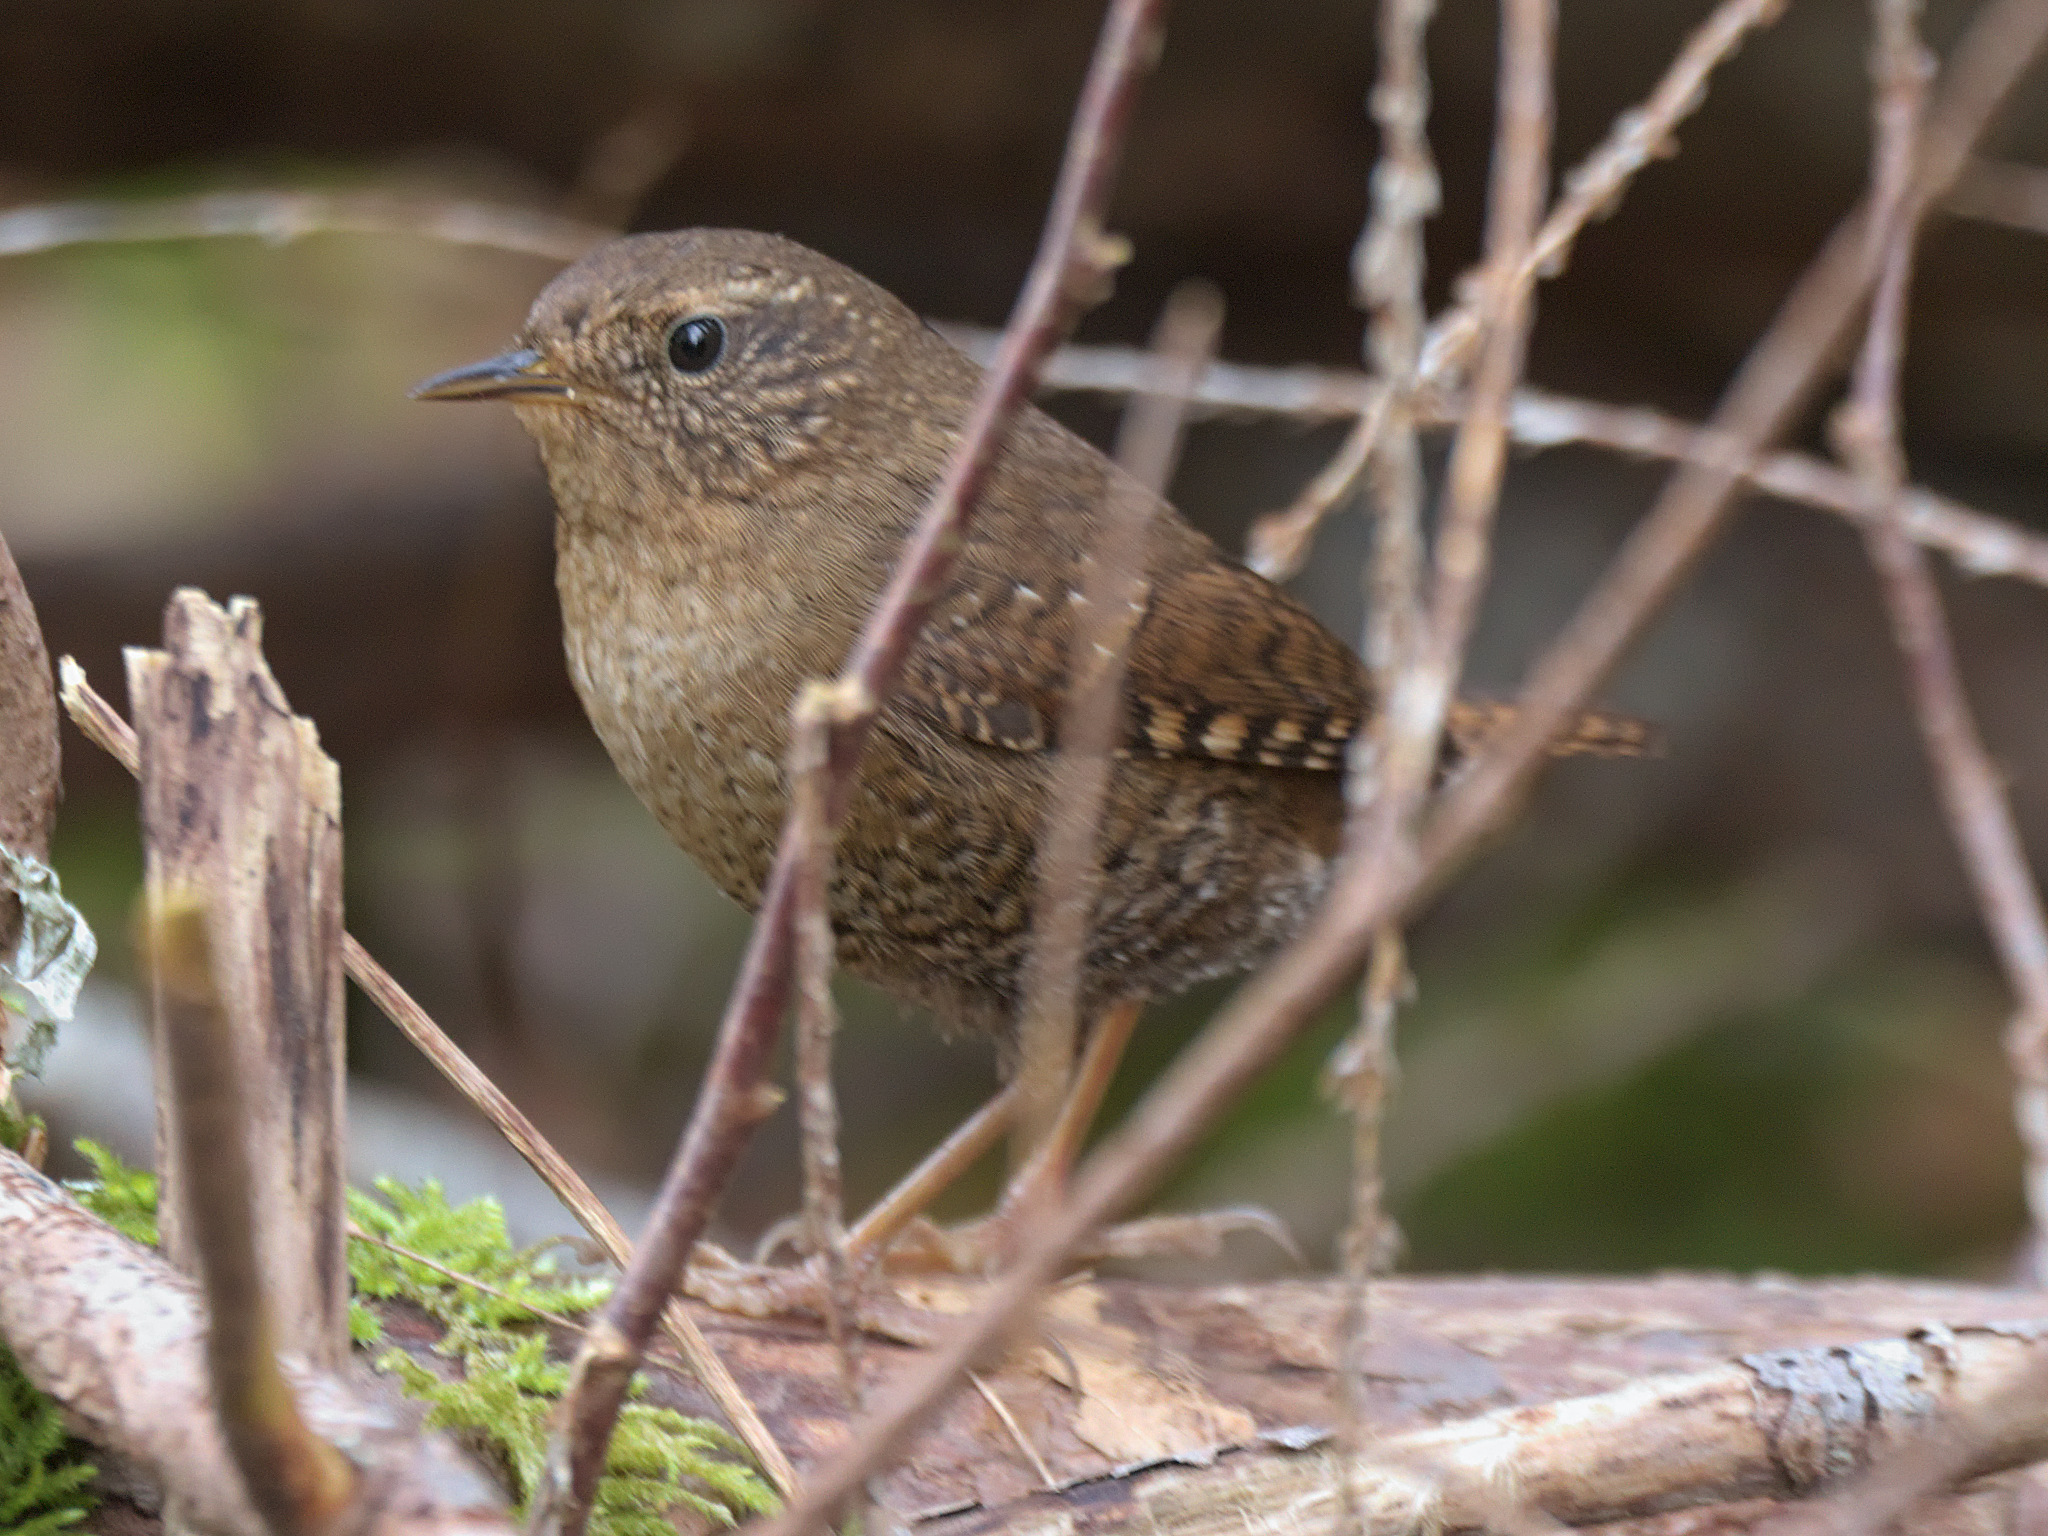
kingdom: Animalia
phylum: Chordata
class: Aves
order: Passeriformes
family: Troglodytidae
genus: Troglodytes
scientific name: Troglodytes pacificus
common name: Pacific wren
